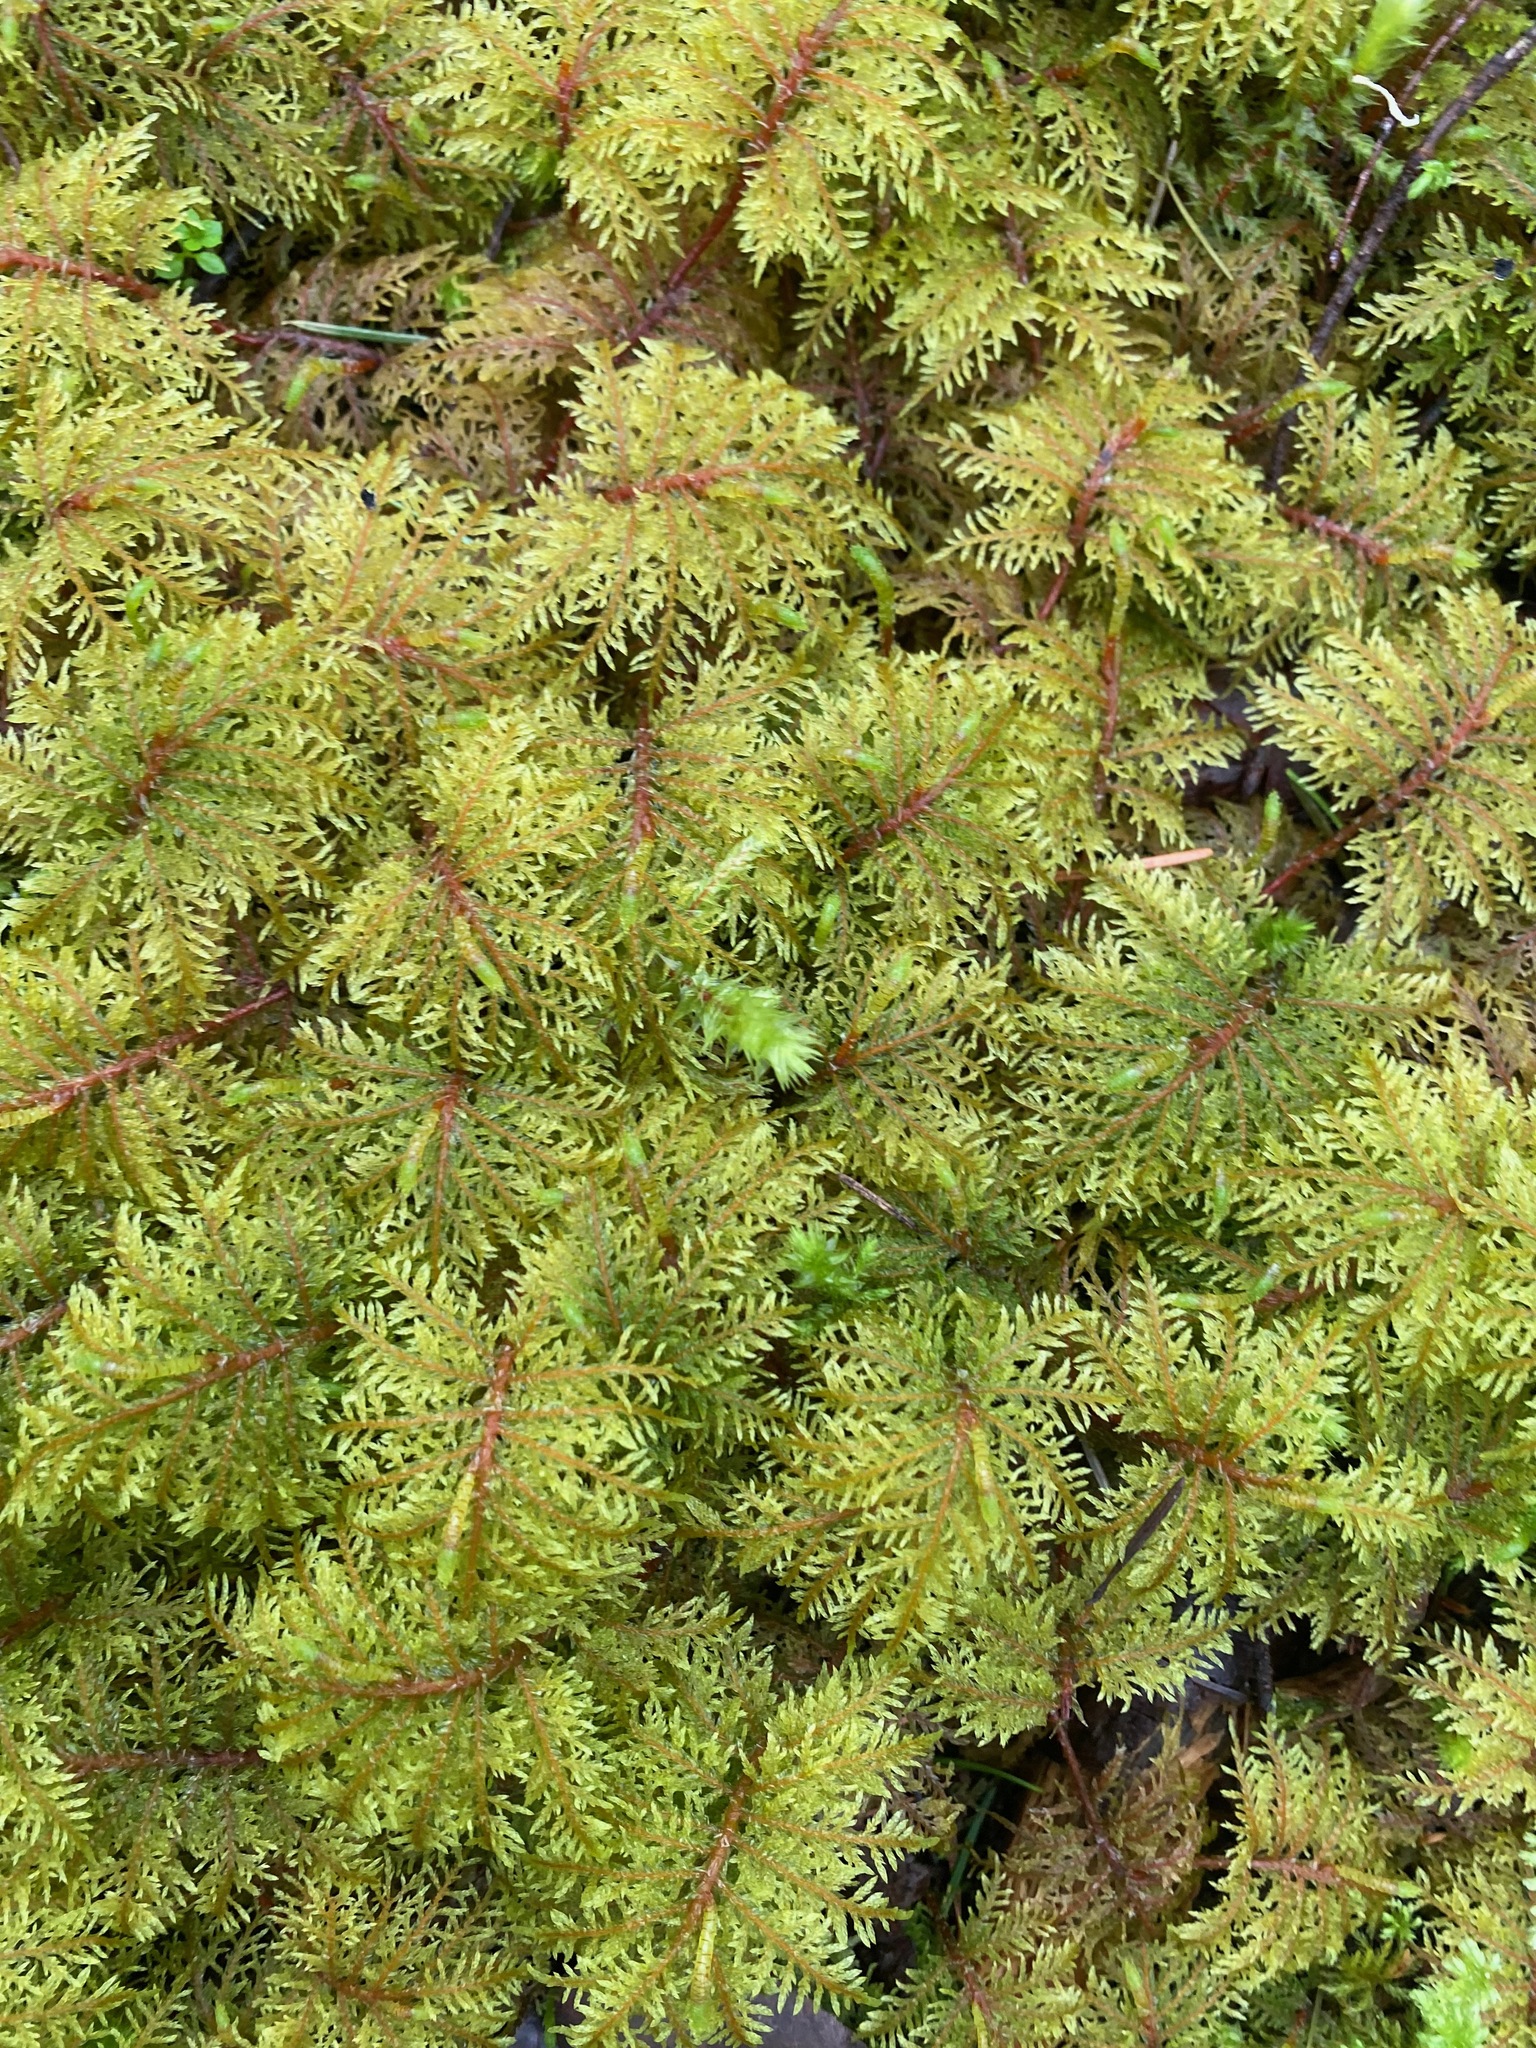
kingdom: Plantae
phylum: Bryophyta
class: Bryopsida
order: Hypnales
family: Hylocomiaceae
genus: Hylocomium
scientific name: Hylocomium splendens
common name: Stairstep moss
